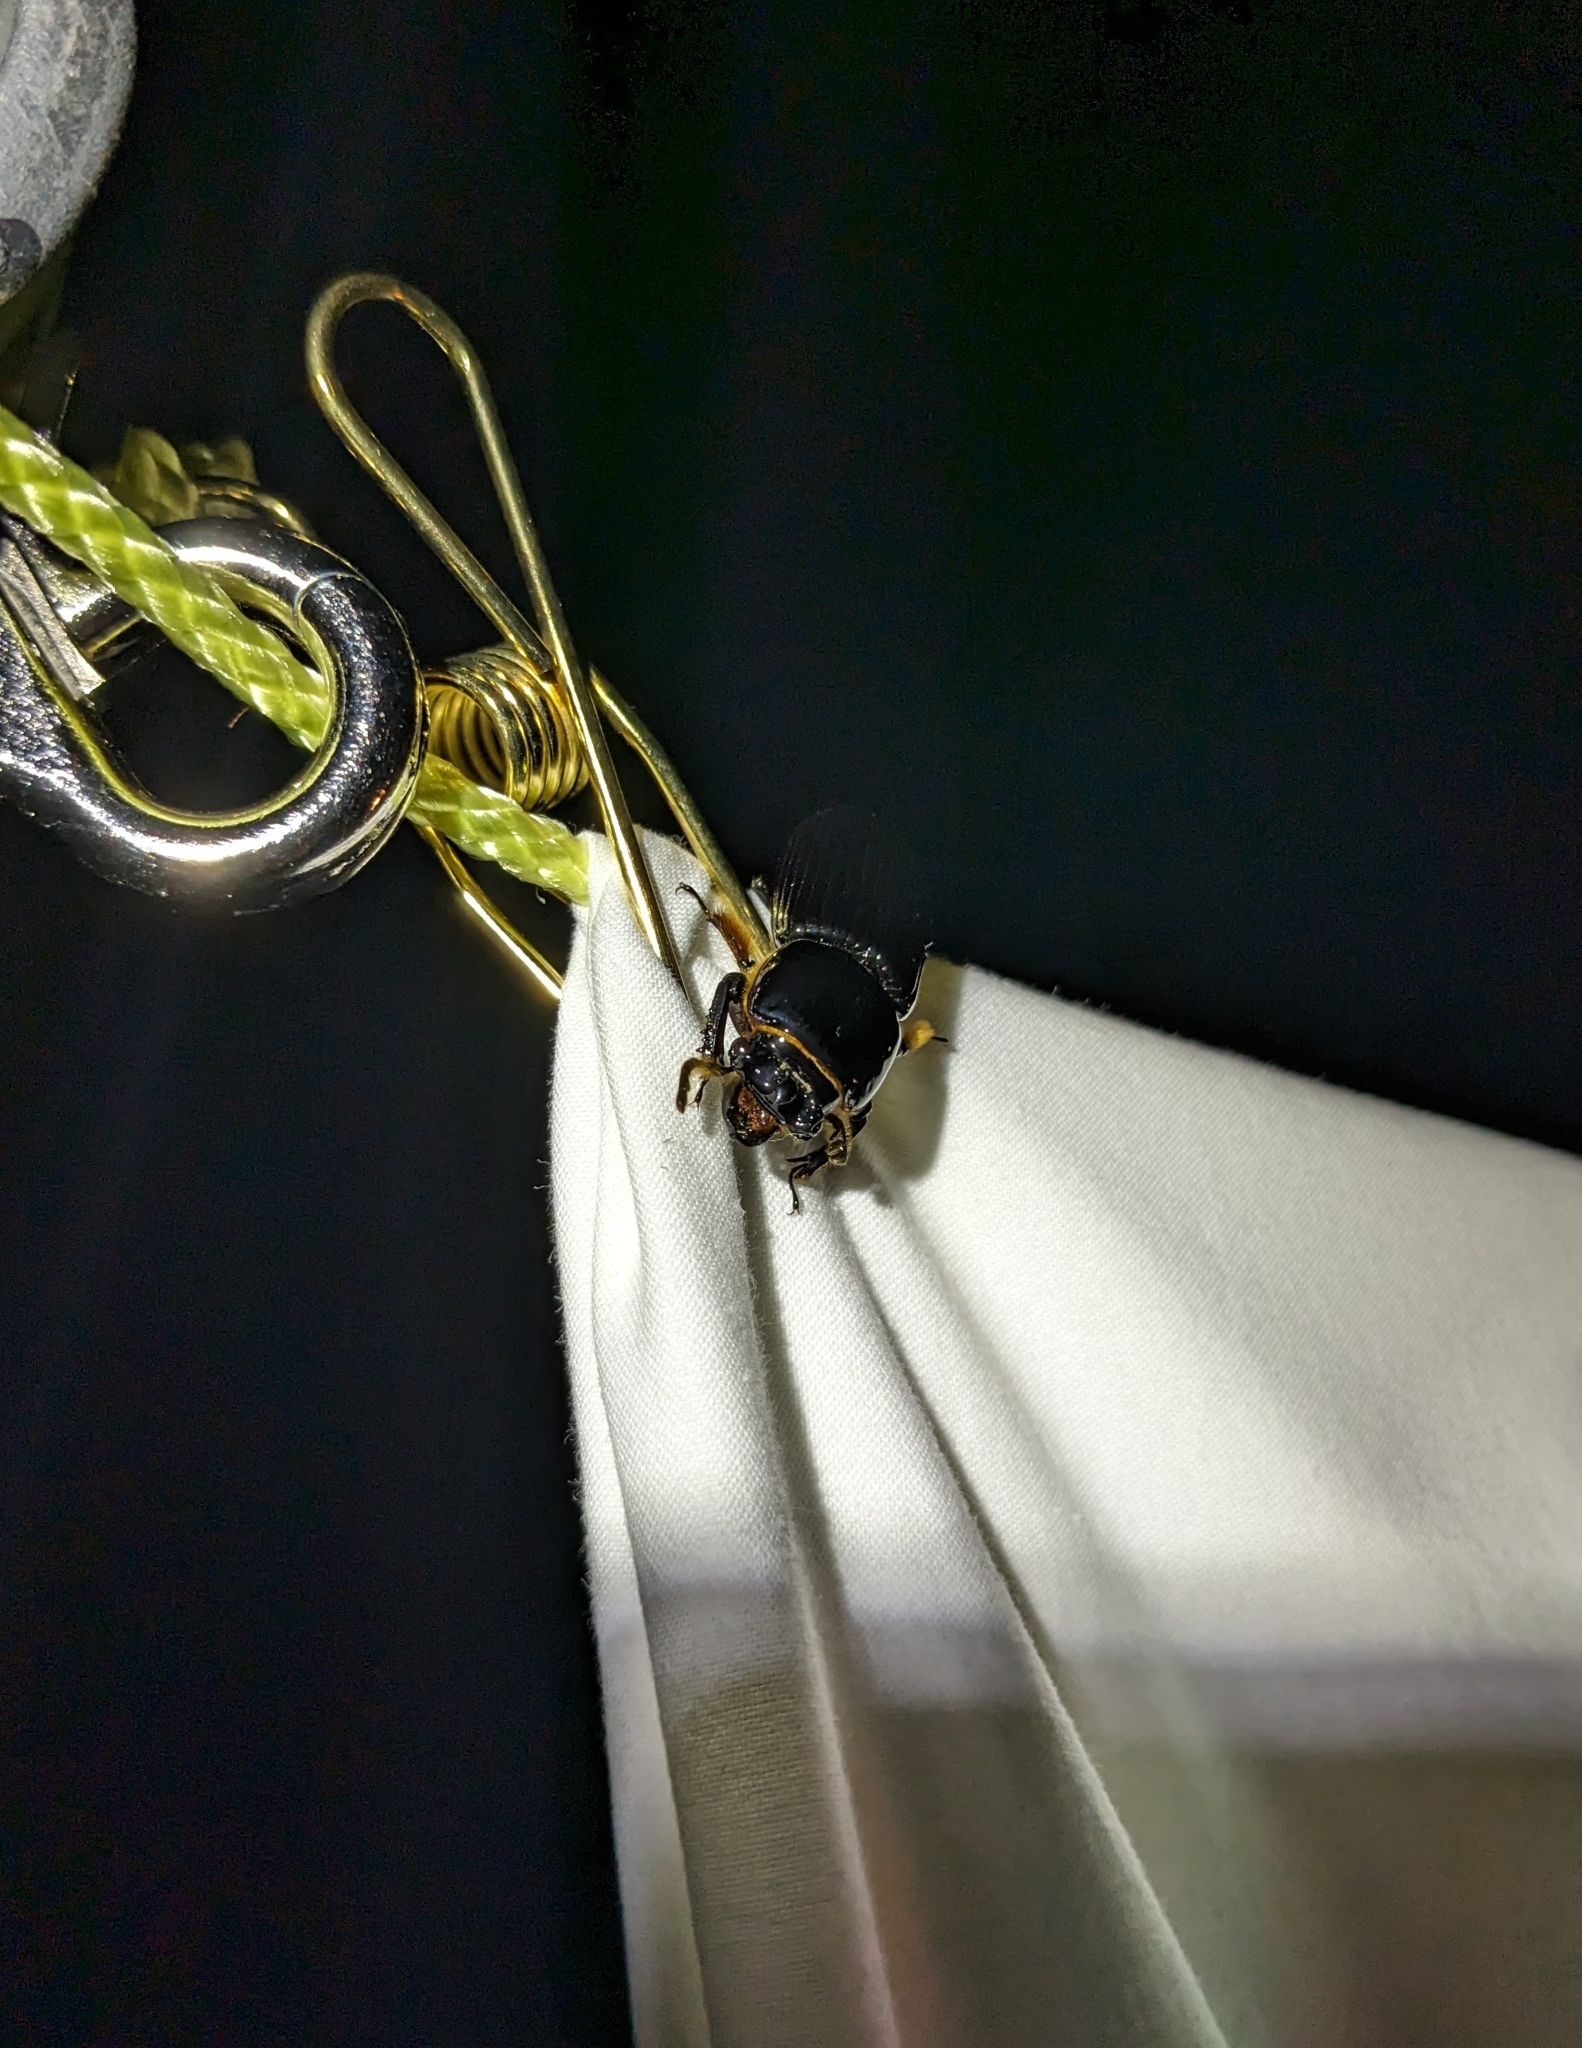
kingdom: Animalia
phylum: Arthropoda
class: Insecta
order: Coleoptera
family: Passalidae
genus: Odontotaenius
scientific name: Odontotaenius disjunctus
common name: Patent leather beetle
